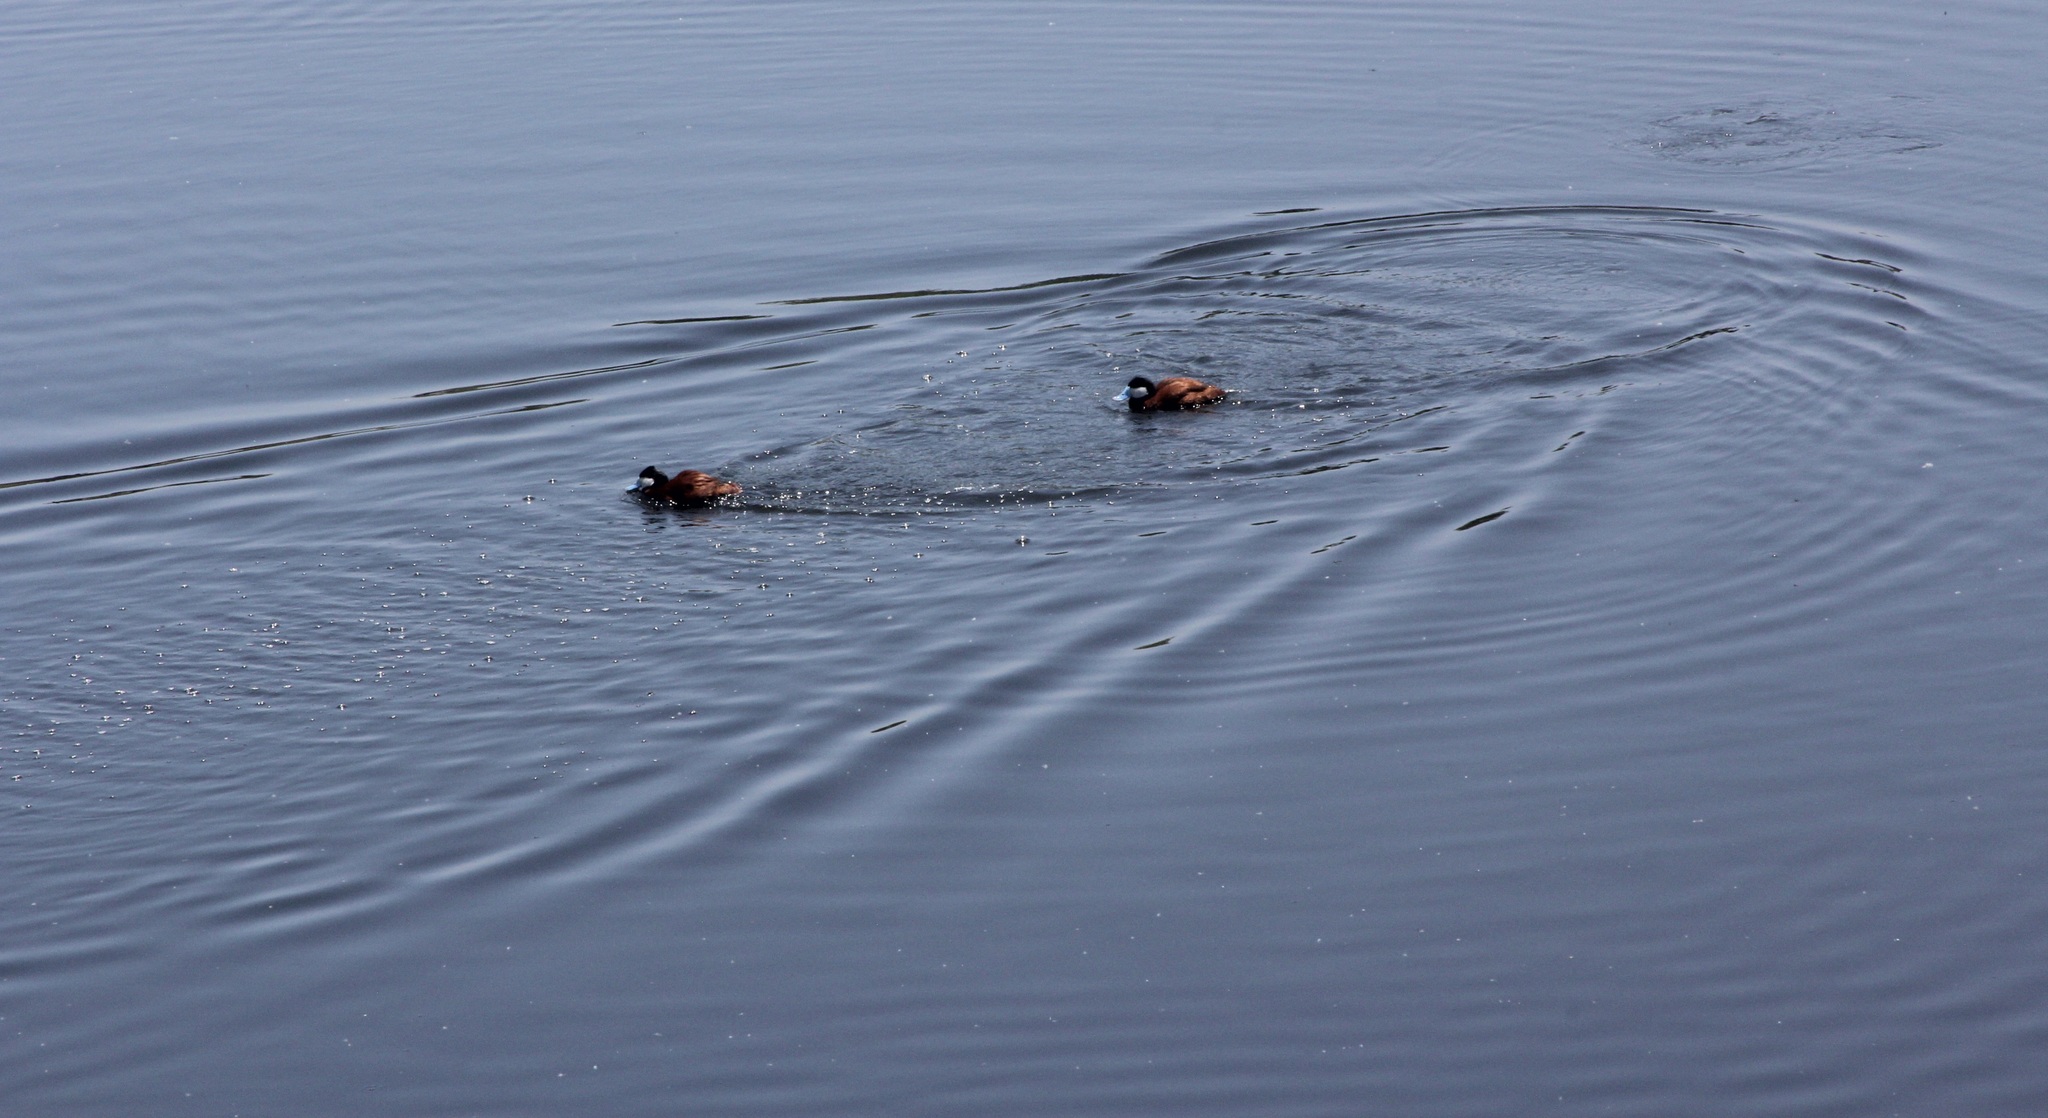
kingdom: Animalia
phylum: Chordata
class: Aves
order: Anseriformes
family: Anatidae
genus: Oxyura
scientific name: Oxyura jamaicensis
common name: Ruddy duck
